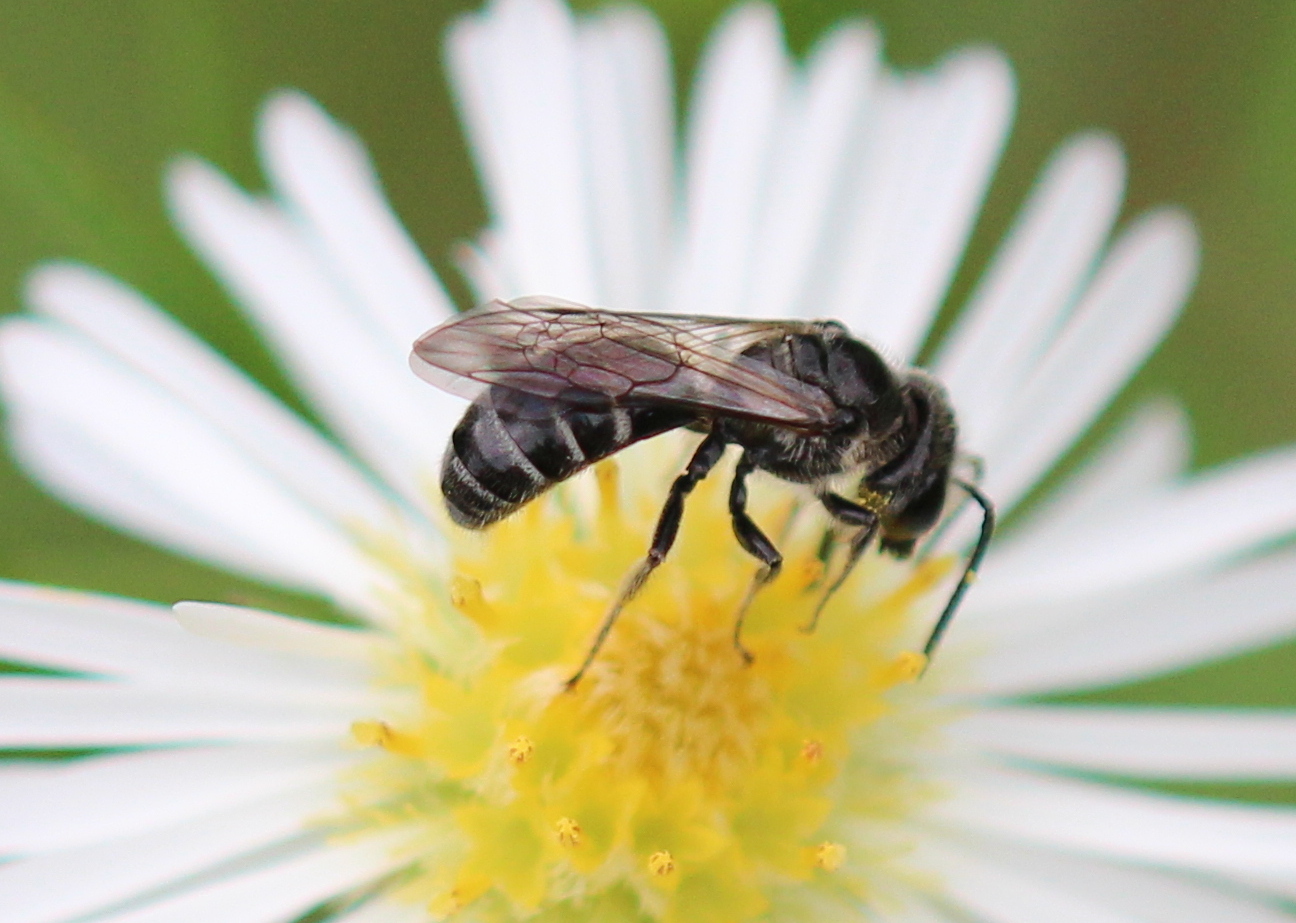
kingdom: Animalia
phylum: Arthropoda
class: Insecta
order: Hymenoptera
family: Halictidae
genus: Lasioglossum
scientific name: Lasioglossum coriaceum
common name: Leathery sweat bee
